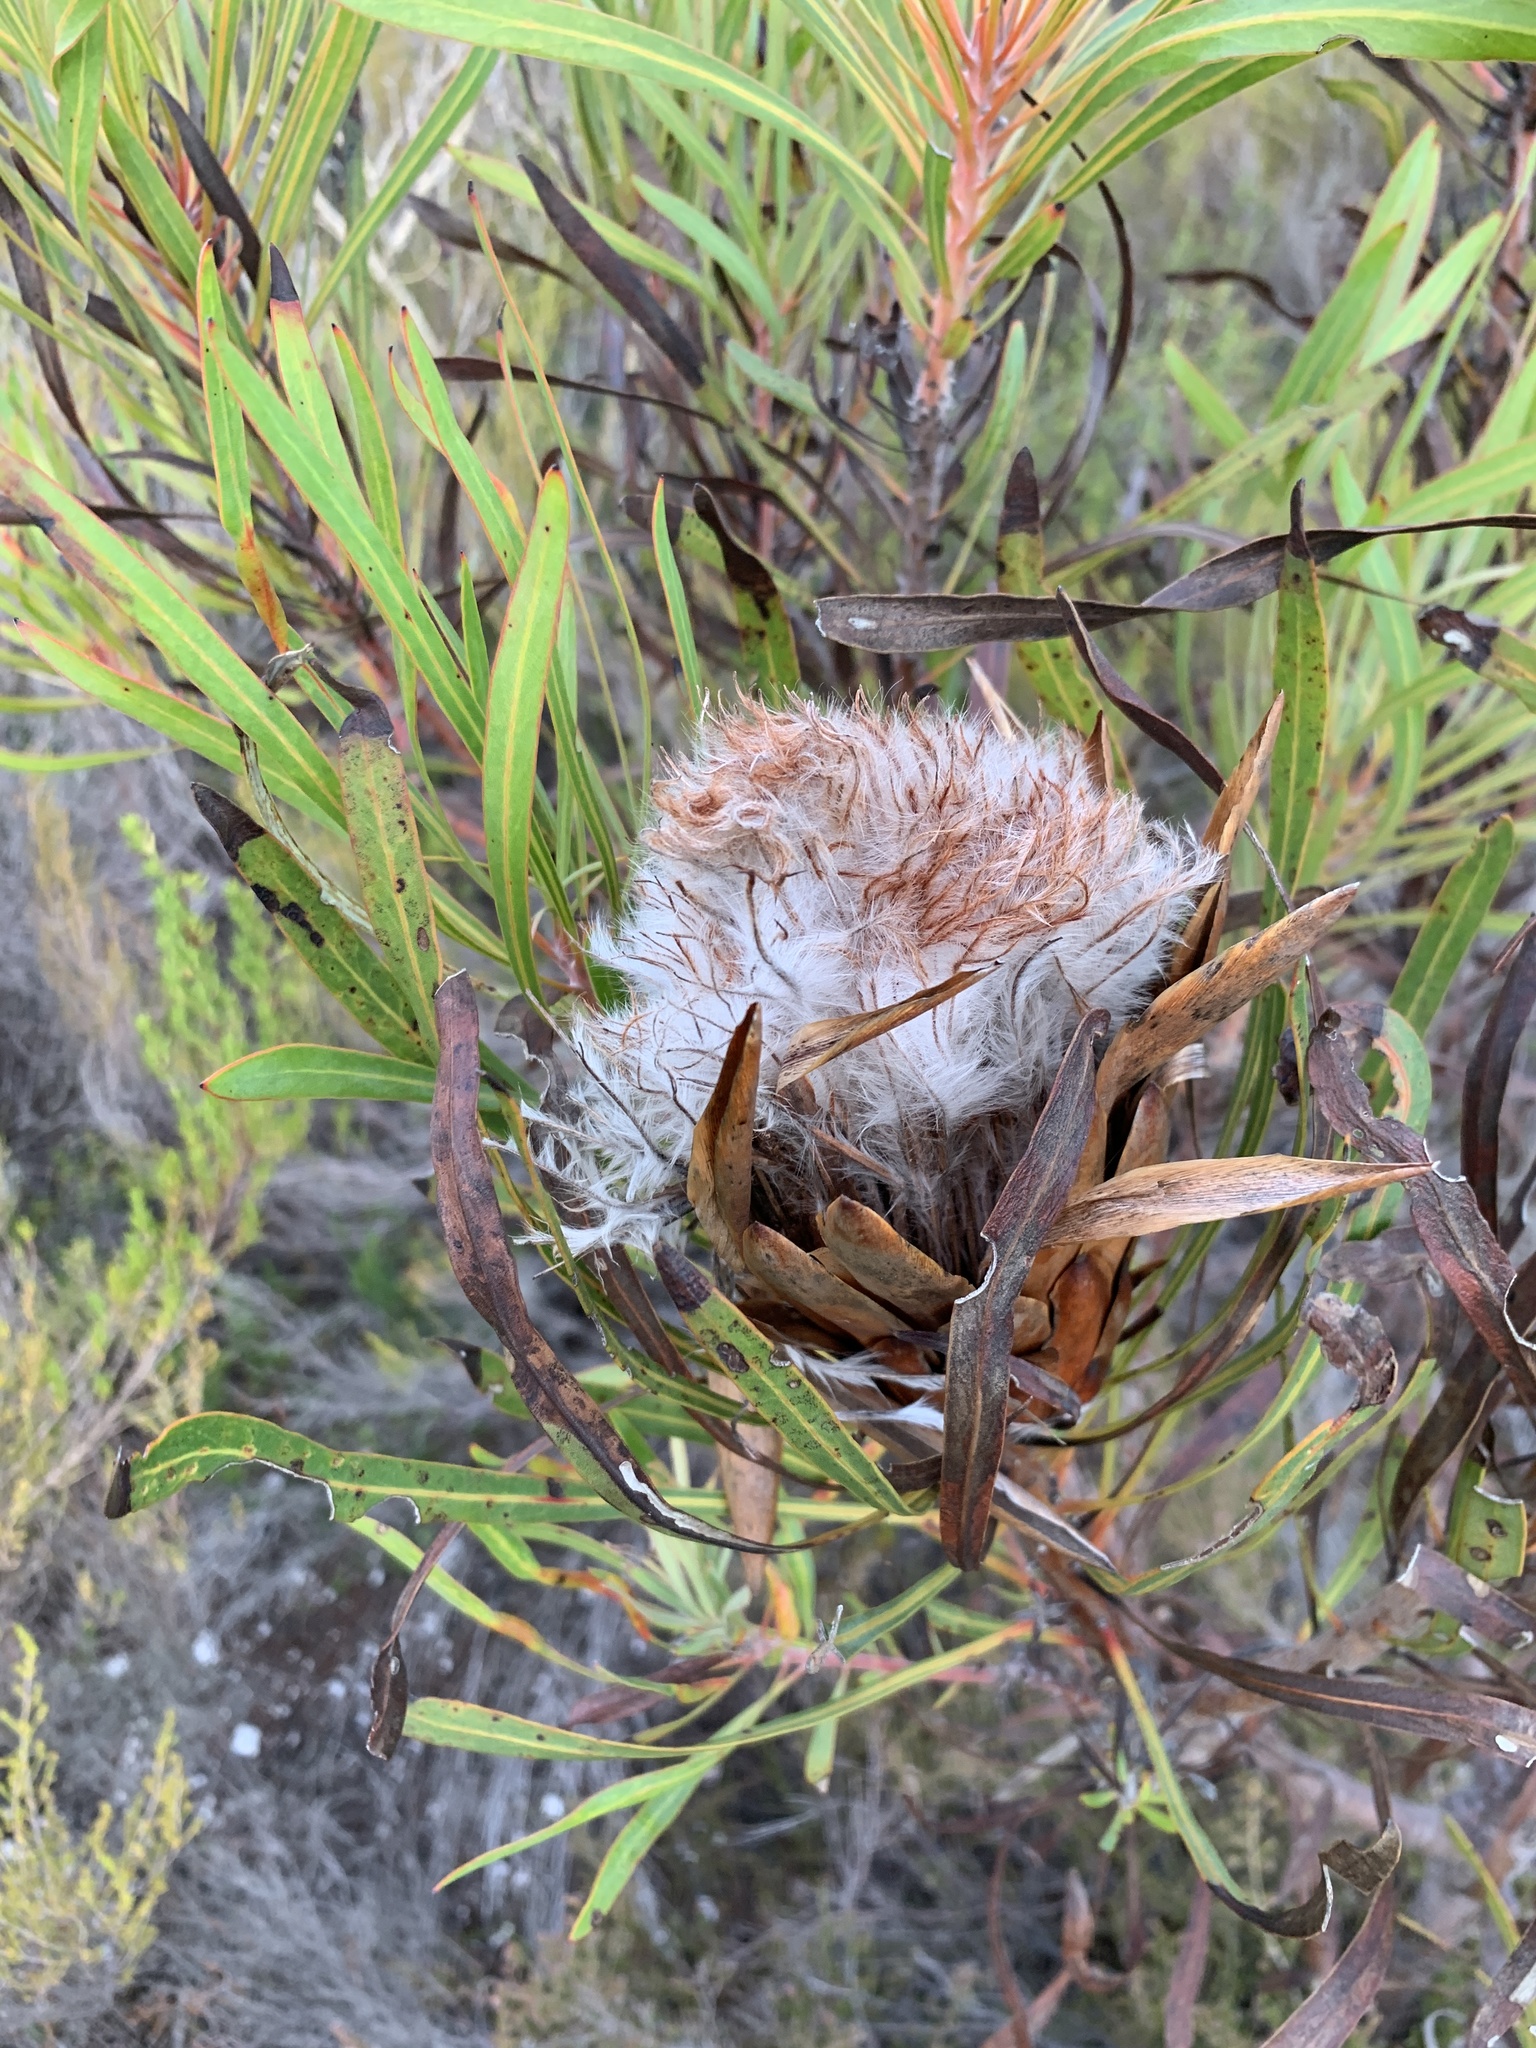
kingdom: Plantae
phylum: Tracheophyta
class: Magnoliopsida
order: Proteales
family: Proteaceae
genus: Protea
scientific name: Protea longifolia
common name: Long-leaf sugarbush
